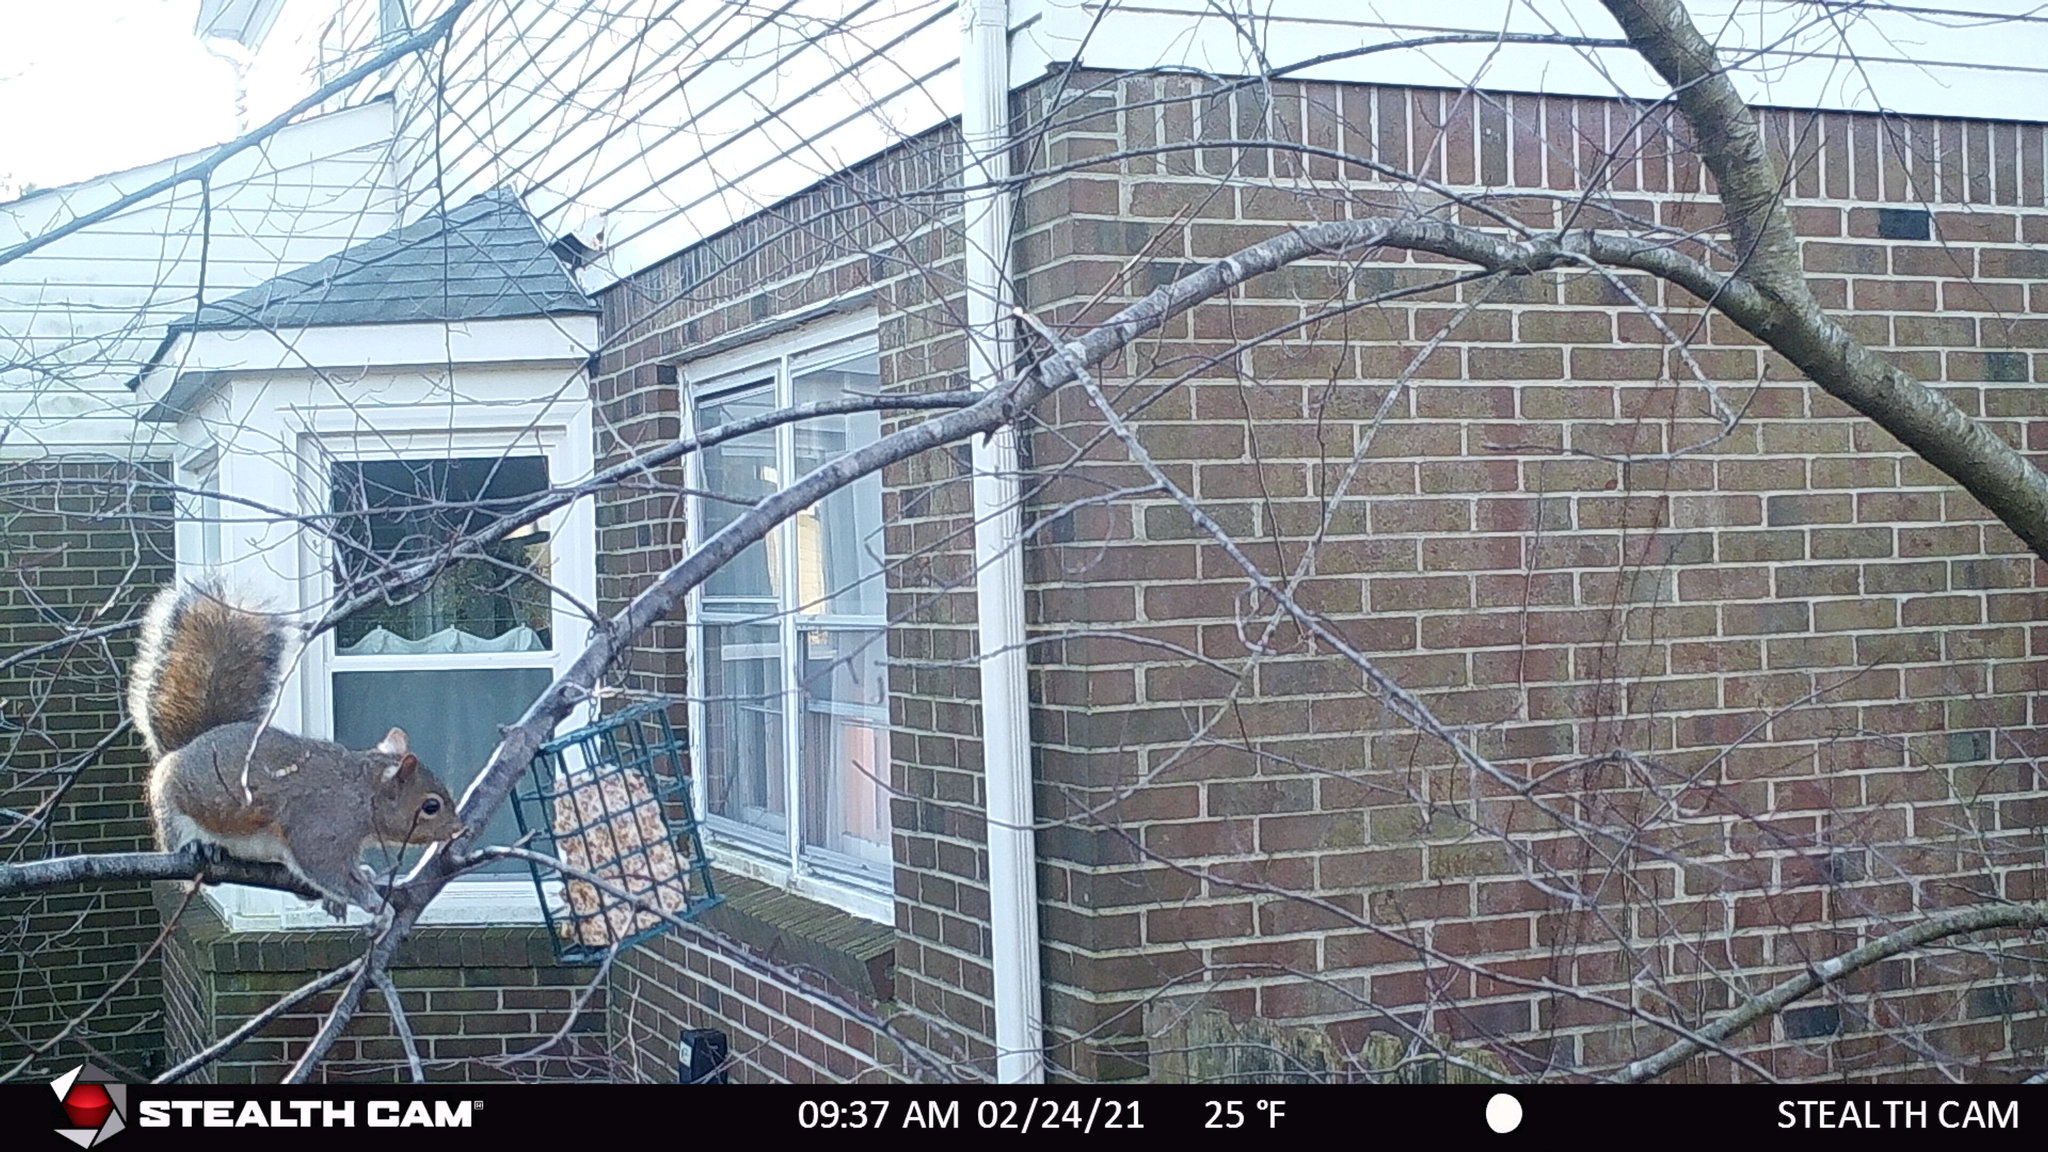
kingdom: Animalia
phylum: Chordata
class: Mammalia
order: Rodentia
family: Sciuridae
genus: Sciurus
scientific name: Sciurus carolinensis
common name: Eastern gray squirrel
